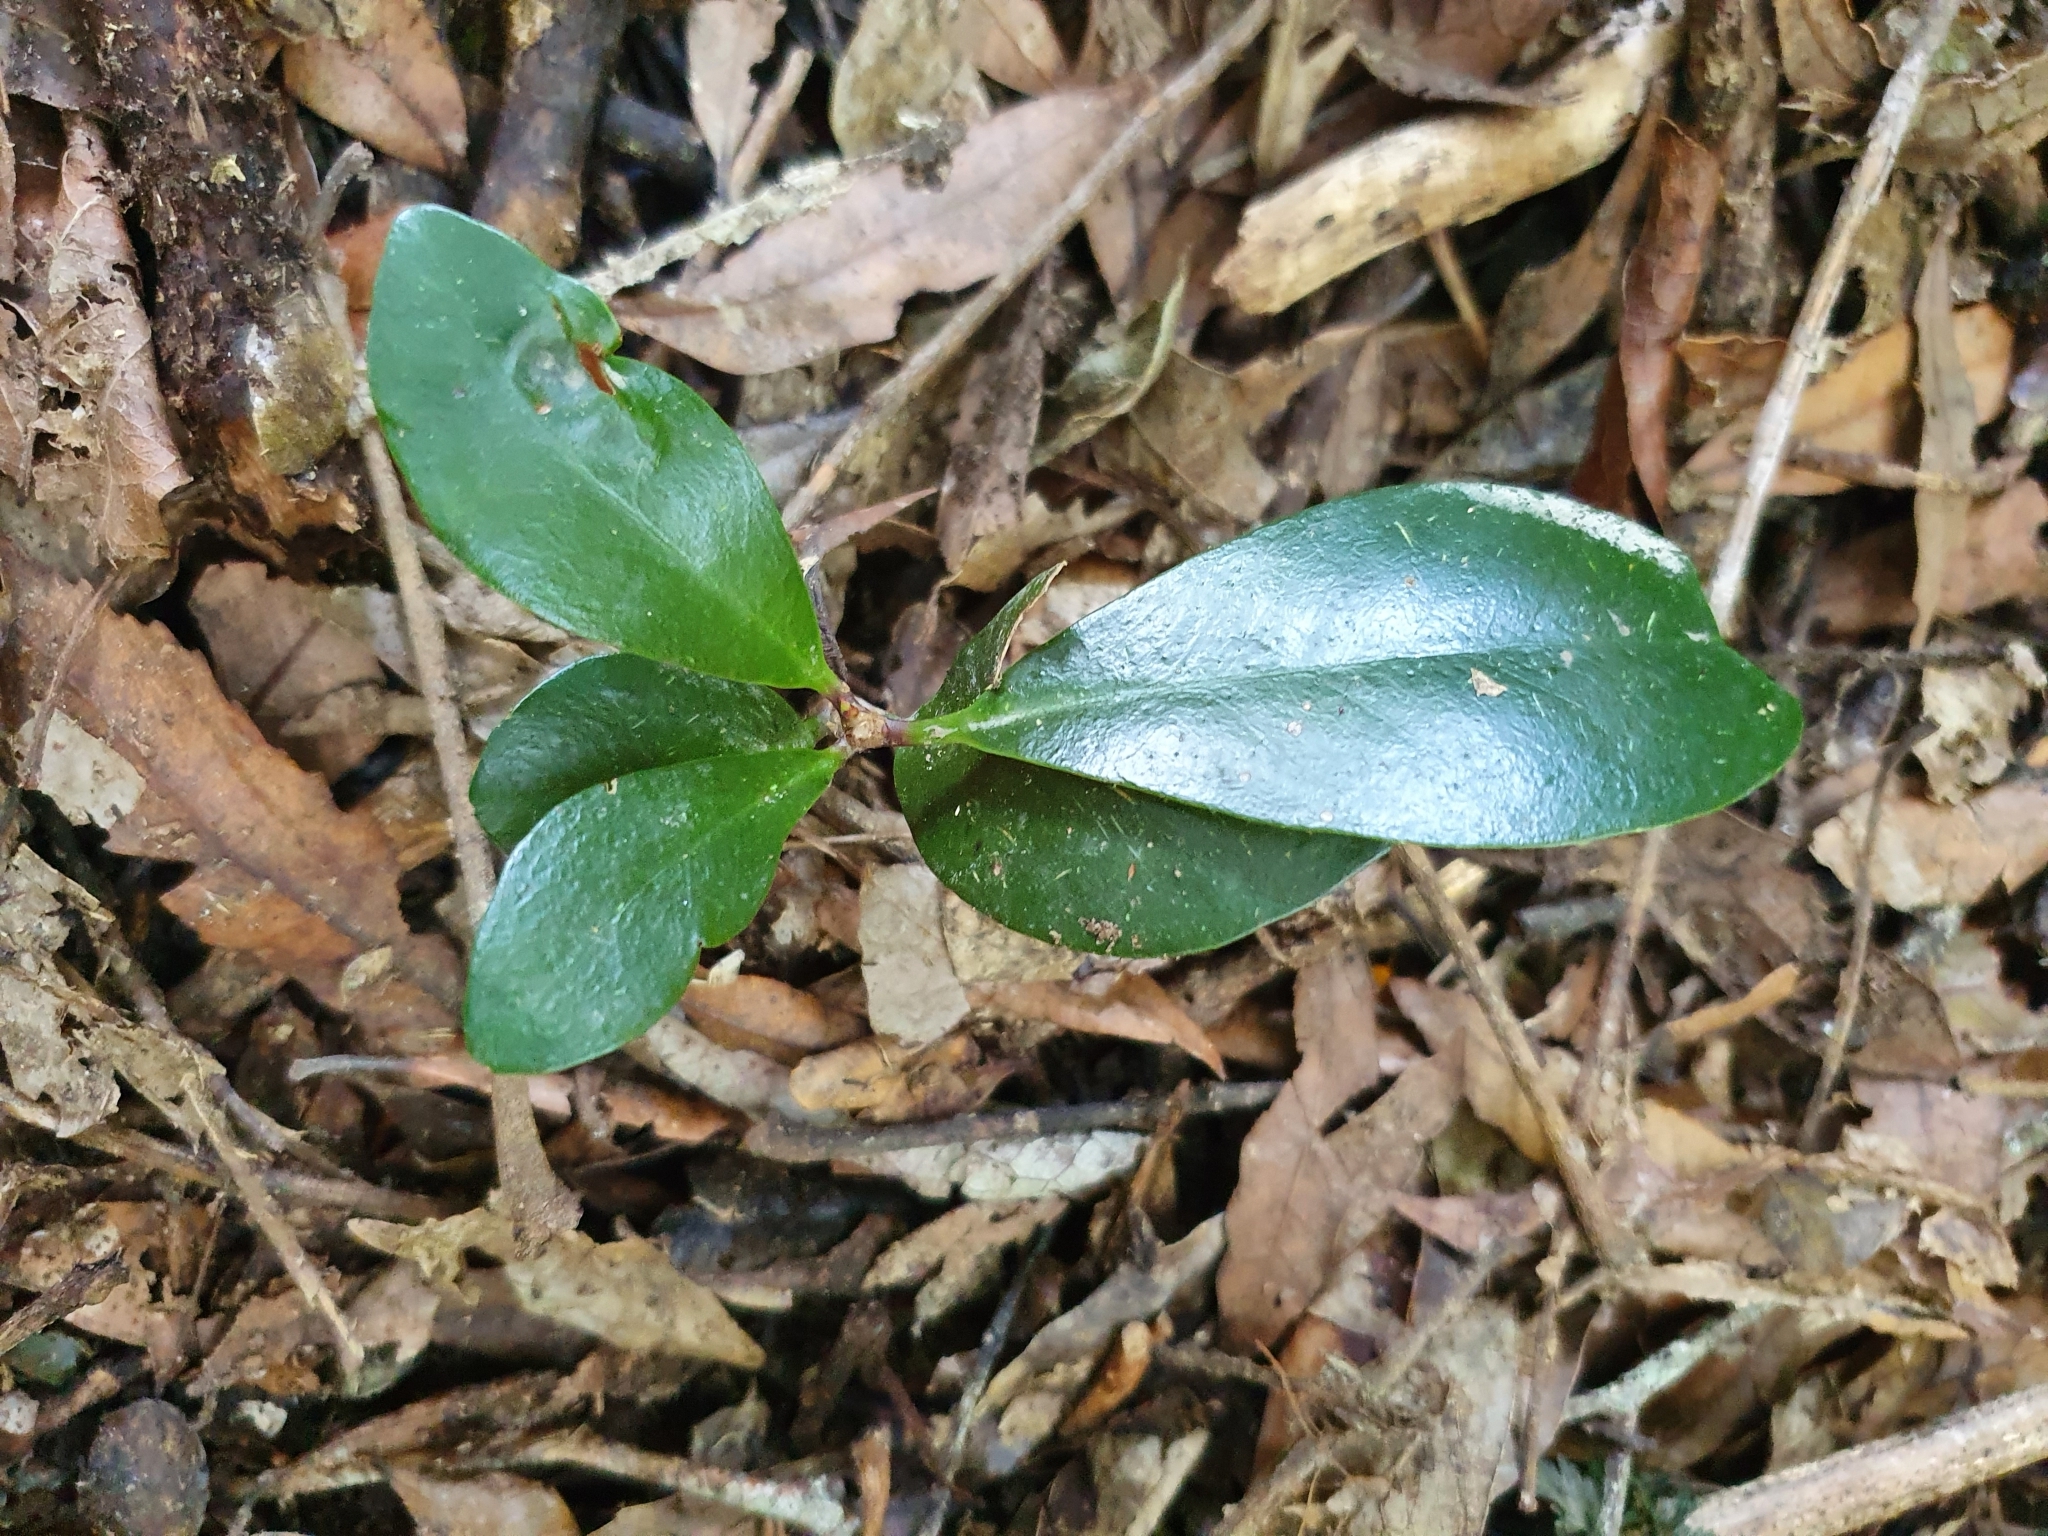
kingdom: Plantae
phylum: Tracheophyta
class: Magnoliopsida
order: Cucurbitales
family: Corynocarpaceae
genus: Corynocarpus
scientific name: Corynocarpus laevigatus
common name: New zealand laurel
